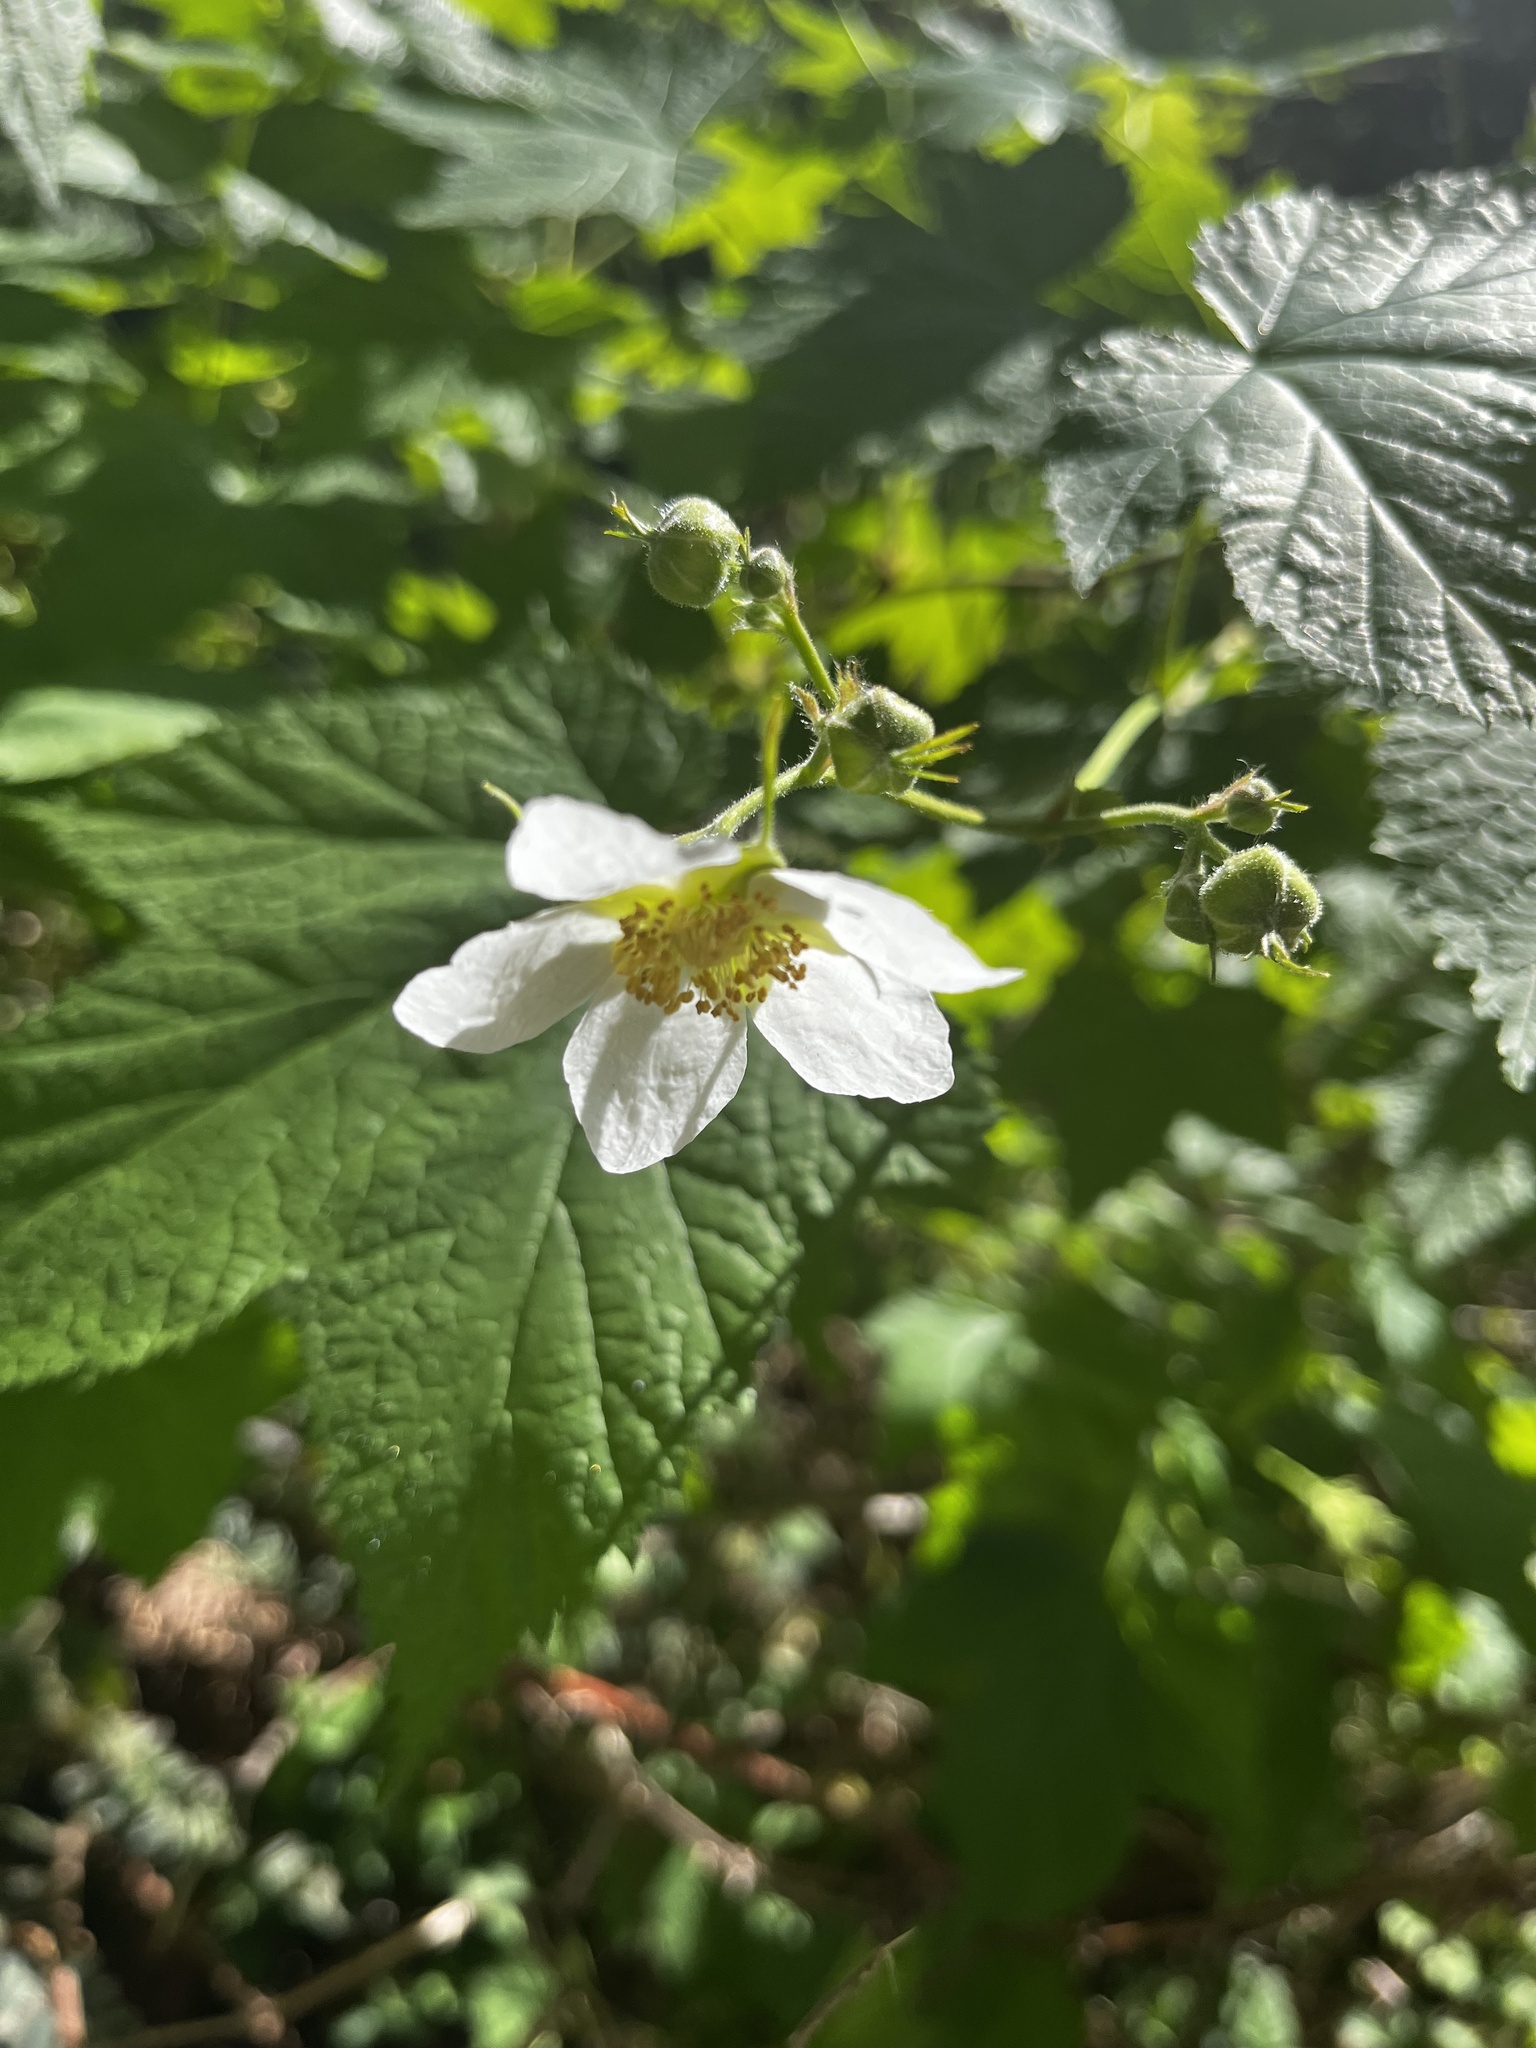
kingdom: Plantae
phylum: Tracheophyta
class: Magnoliopsida
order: Rosales
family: Rosaceae
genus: Rubus
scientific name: Rubus parviflorus
